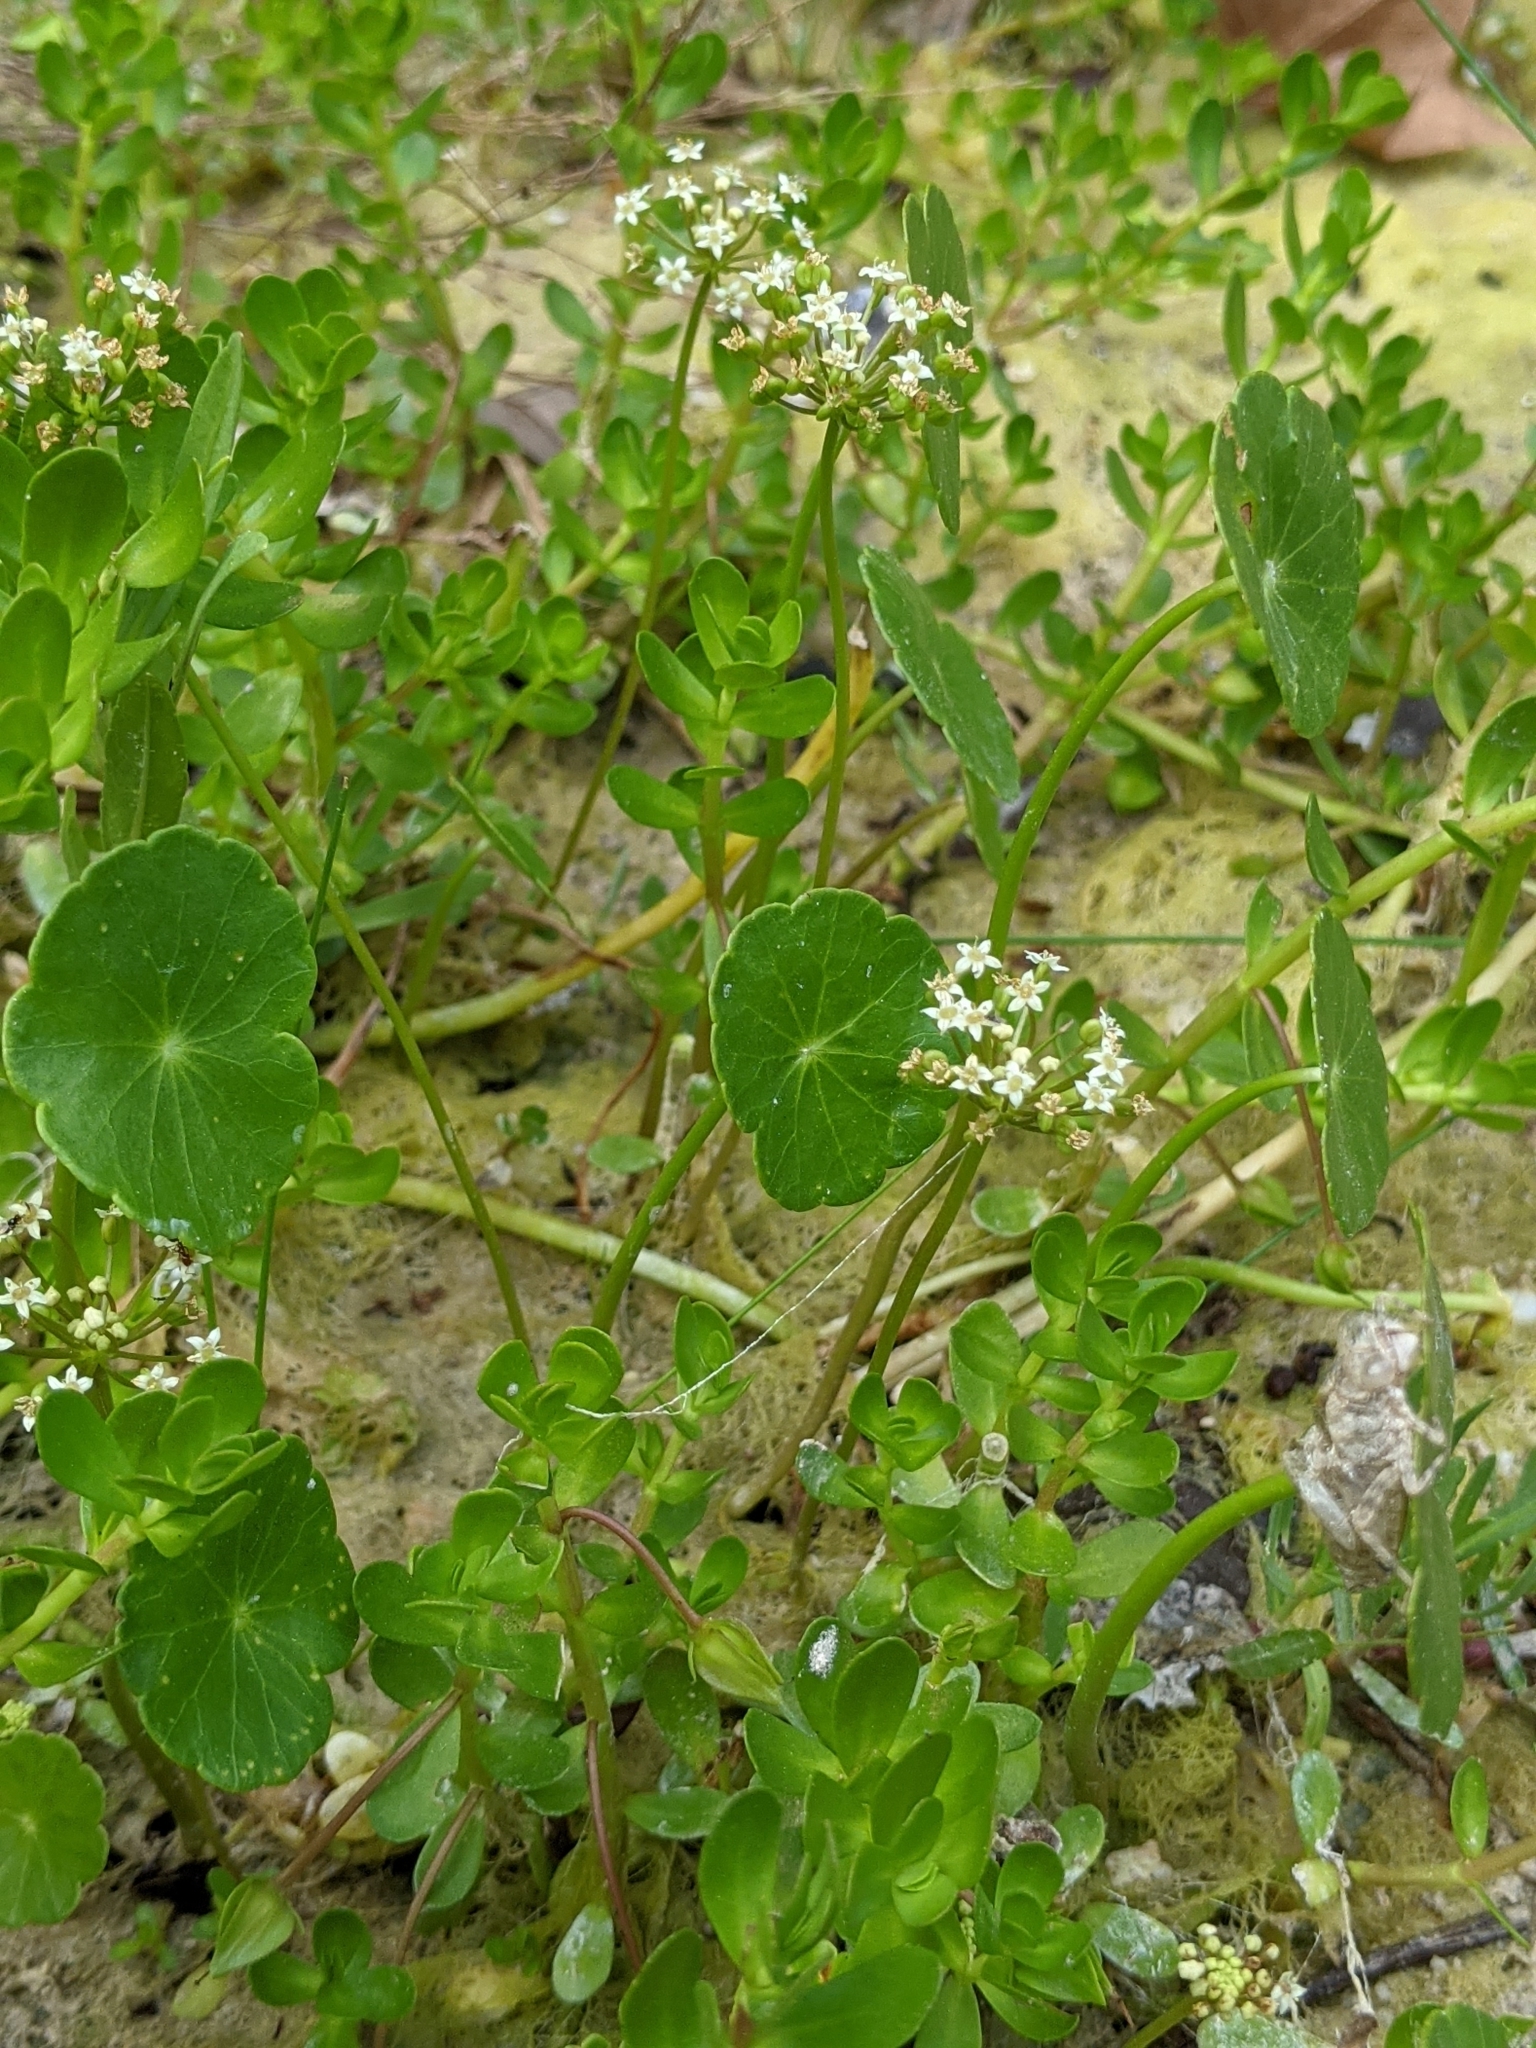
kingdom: Plantae
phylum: Tracheophyta
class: Magnoliopsida
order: Apiales
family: Araliaceae
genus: Hydrocotyle
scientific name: Hydrocotyle umbellata
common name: Water pennywort
